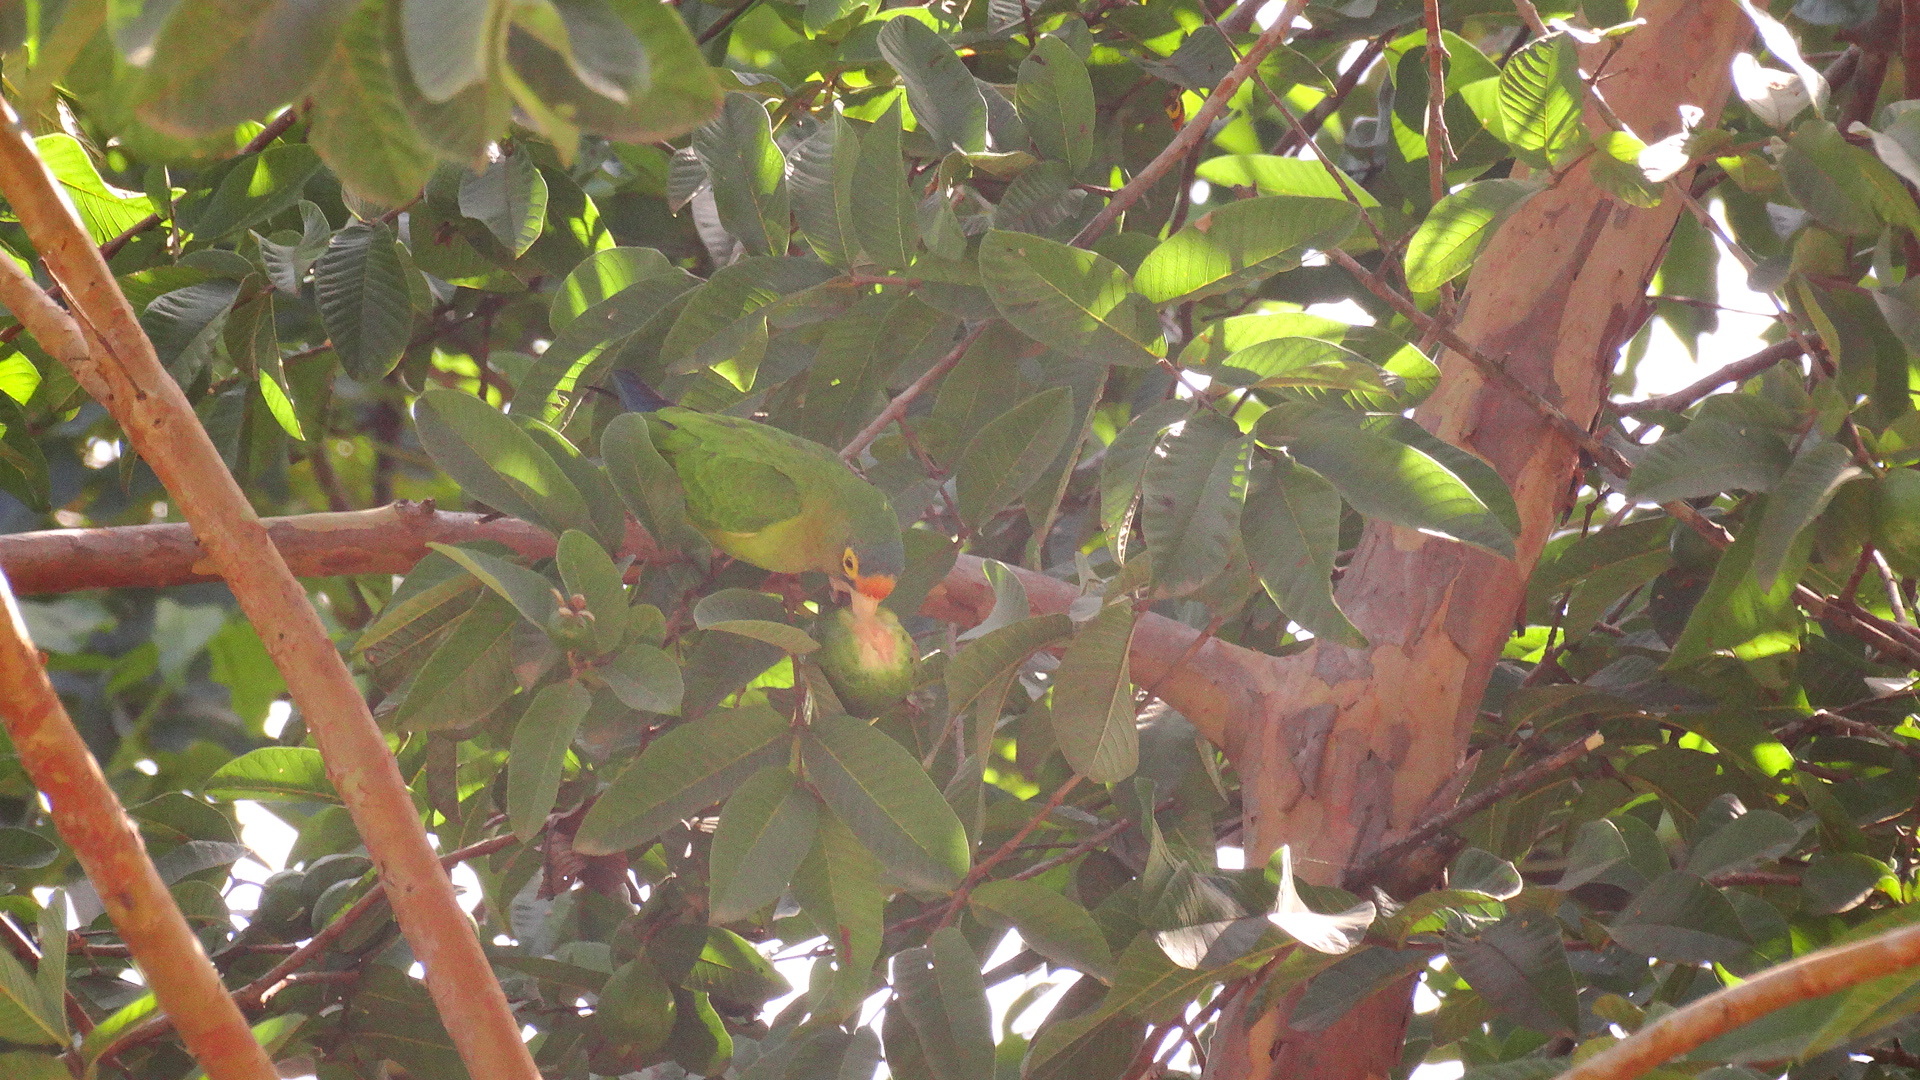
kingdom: Animalia
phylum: Chordata
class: Aves
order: Psittaciformes
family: Psittacidae
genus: Aratinga
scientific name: Aratinga canicularis
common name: Orange-fronted parakeet
